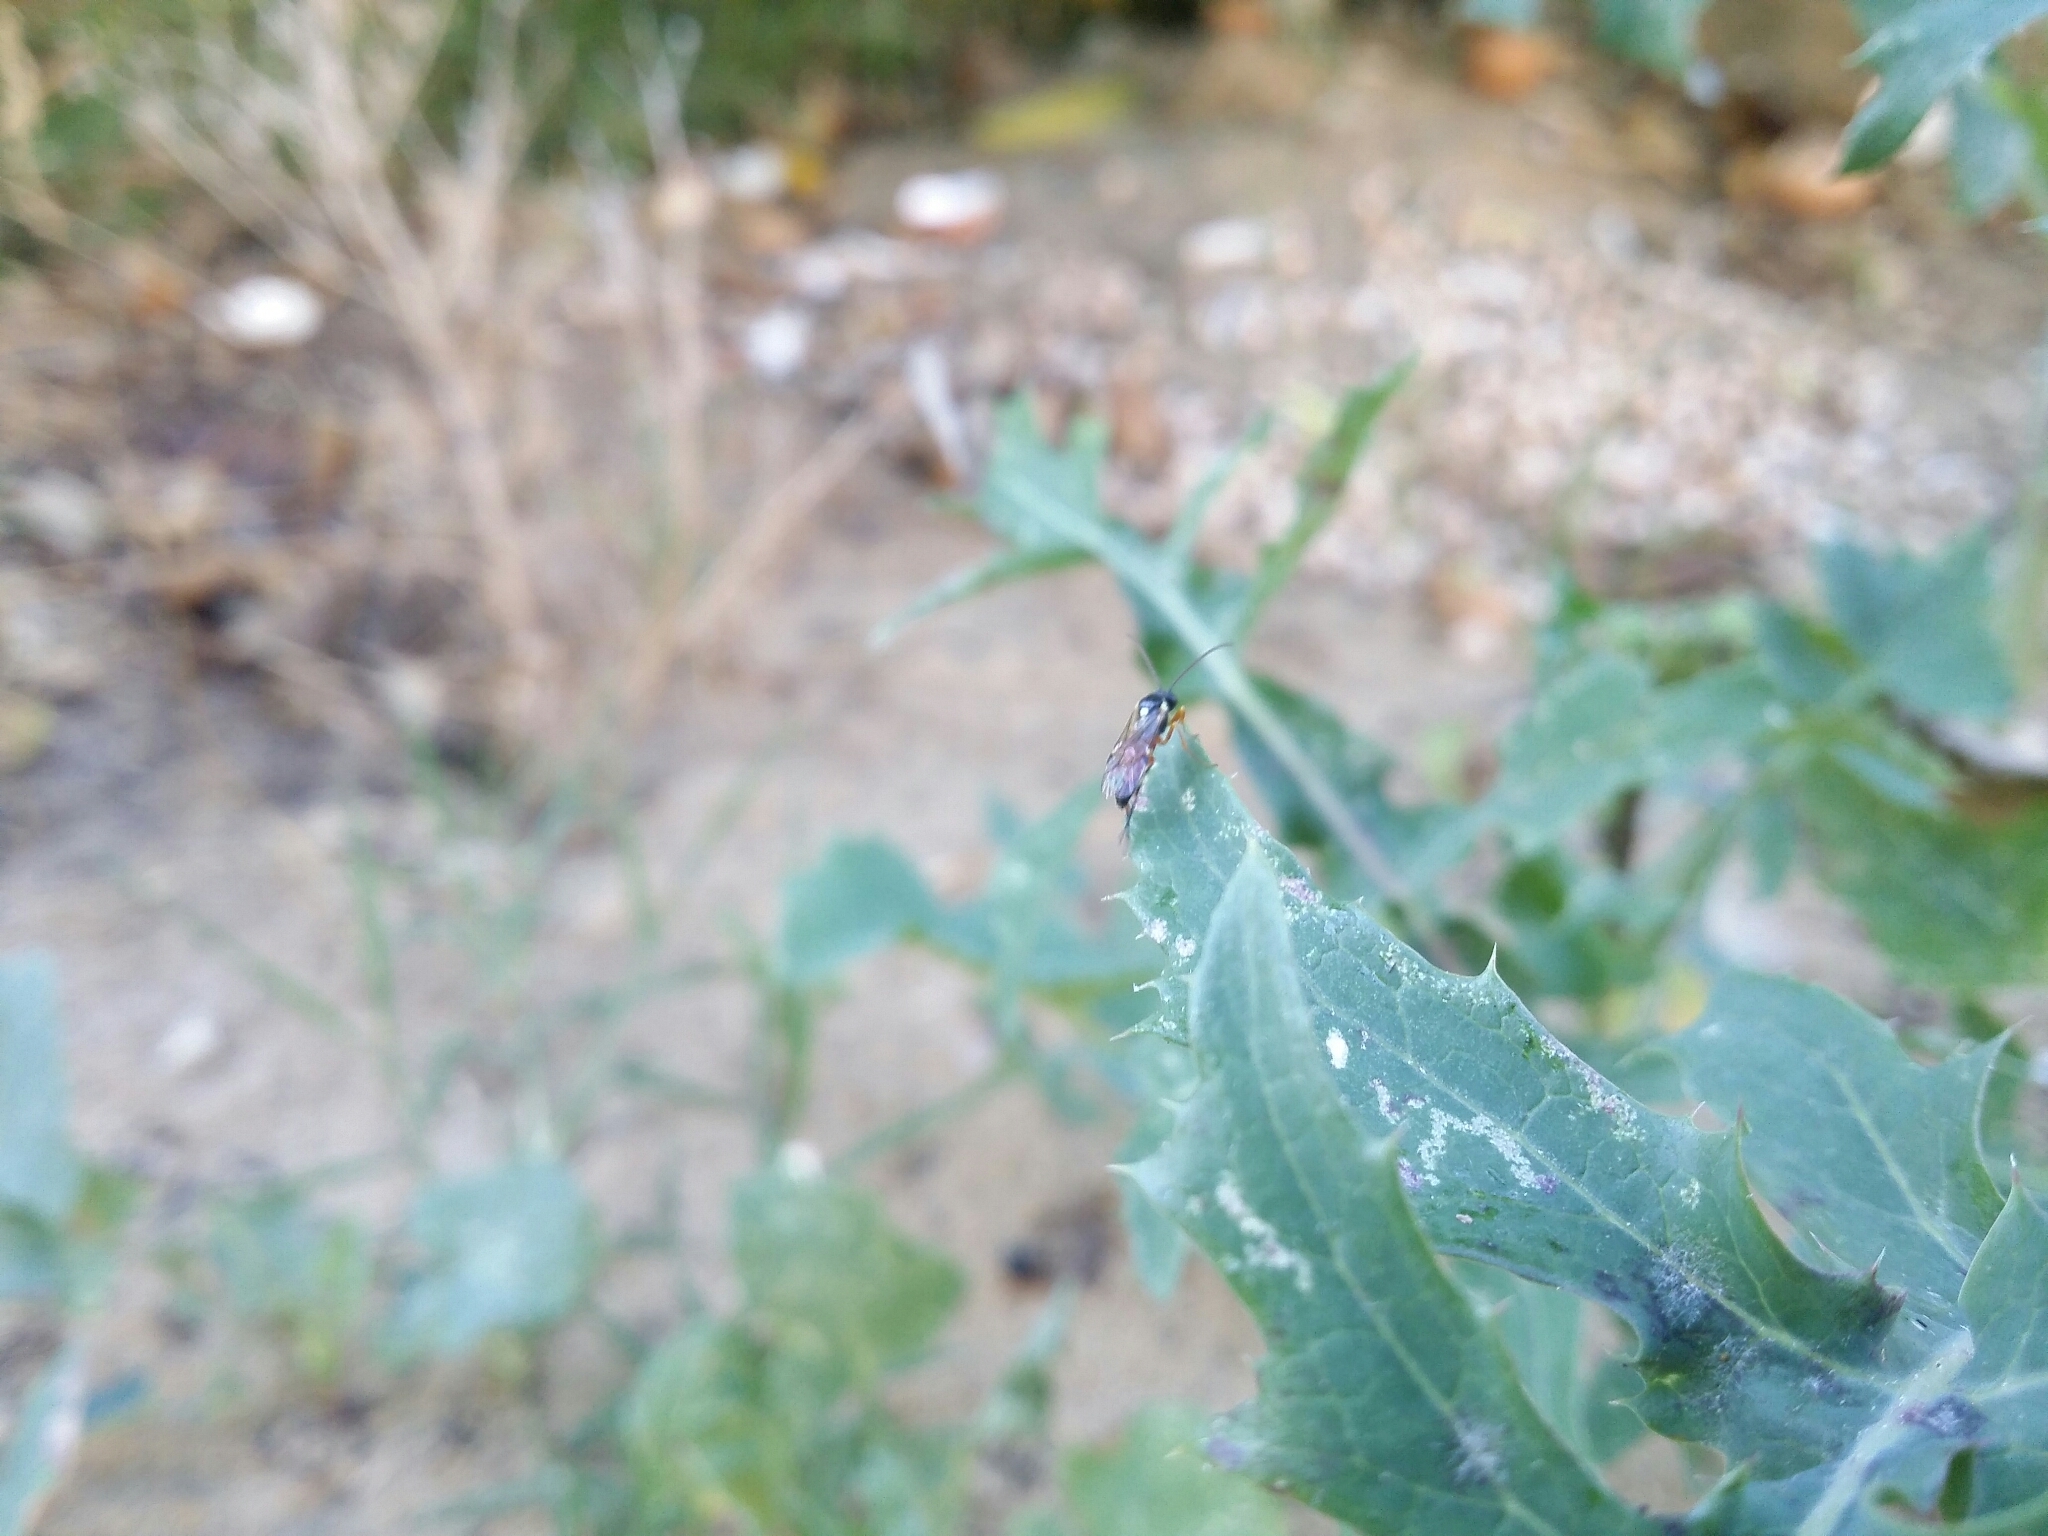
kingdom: Animalia
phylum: Arthropoda
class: Insecta
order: Hymenoptera
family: Ichneumonidae
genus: Diplazon
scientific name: Diplazon laetatorius
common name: Parasitoid wasp
